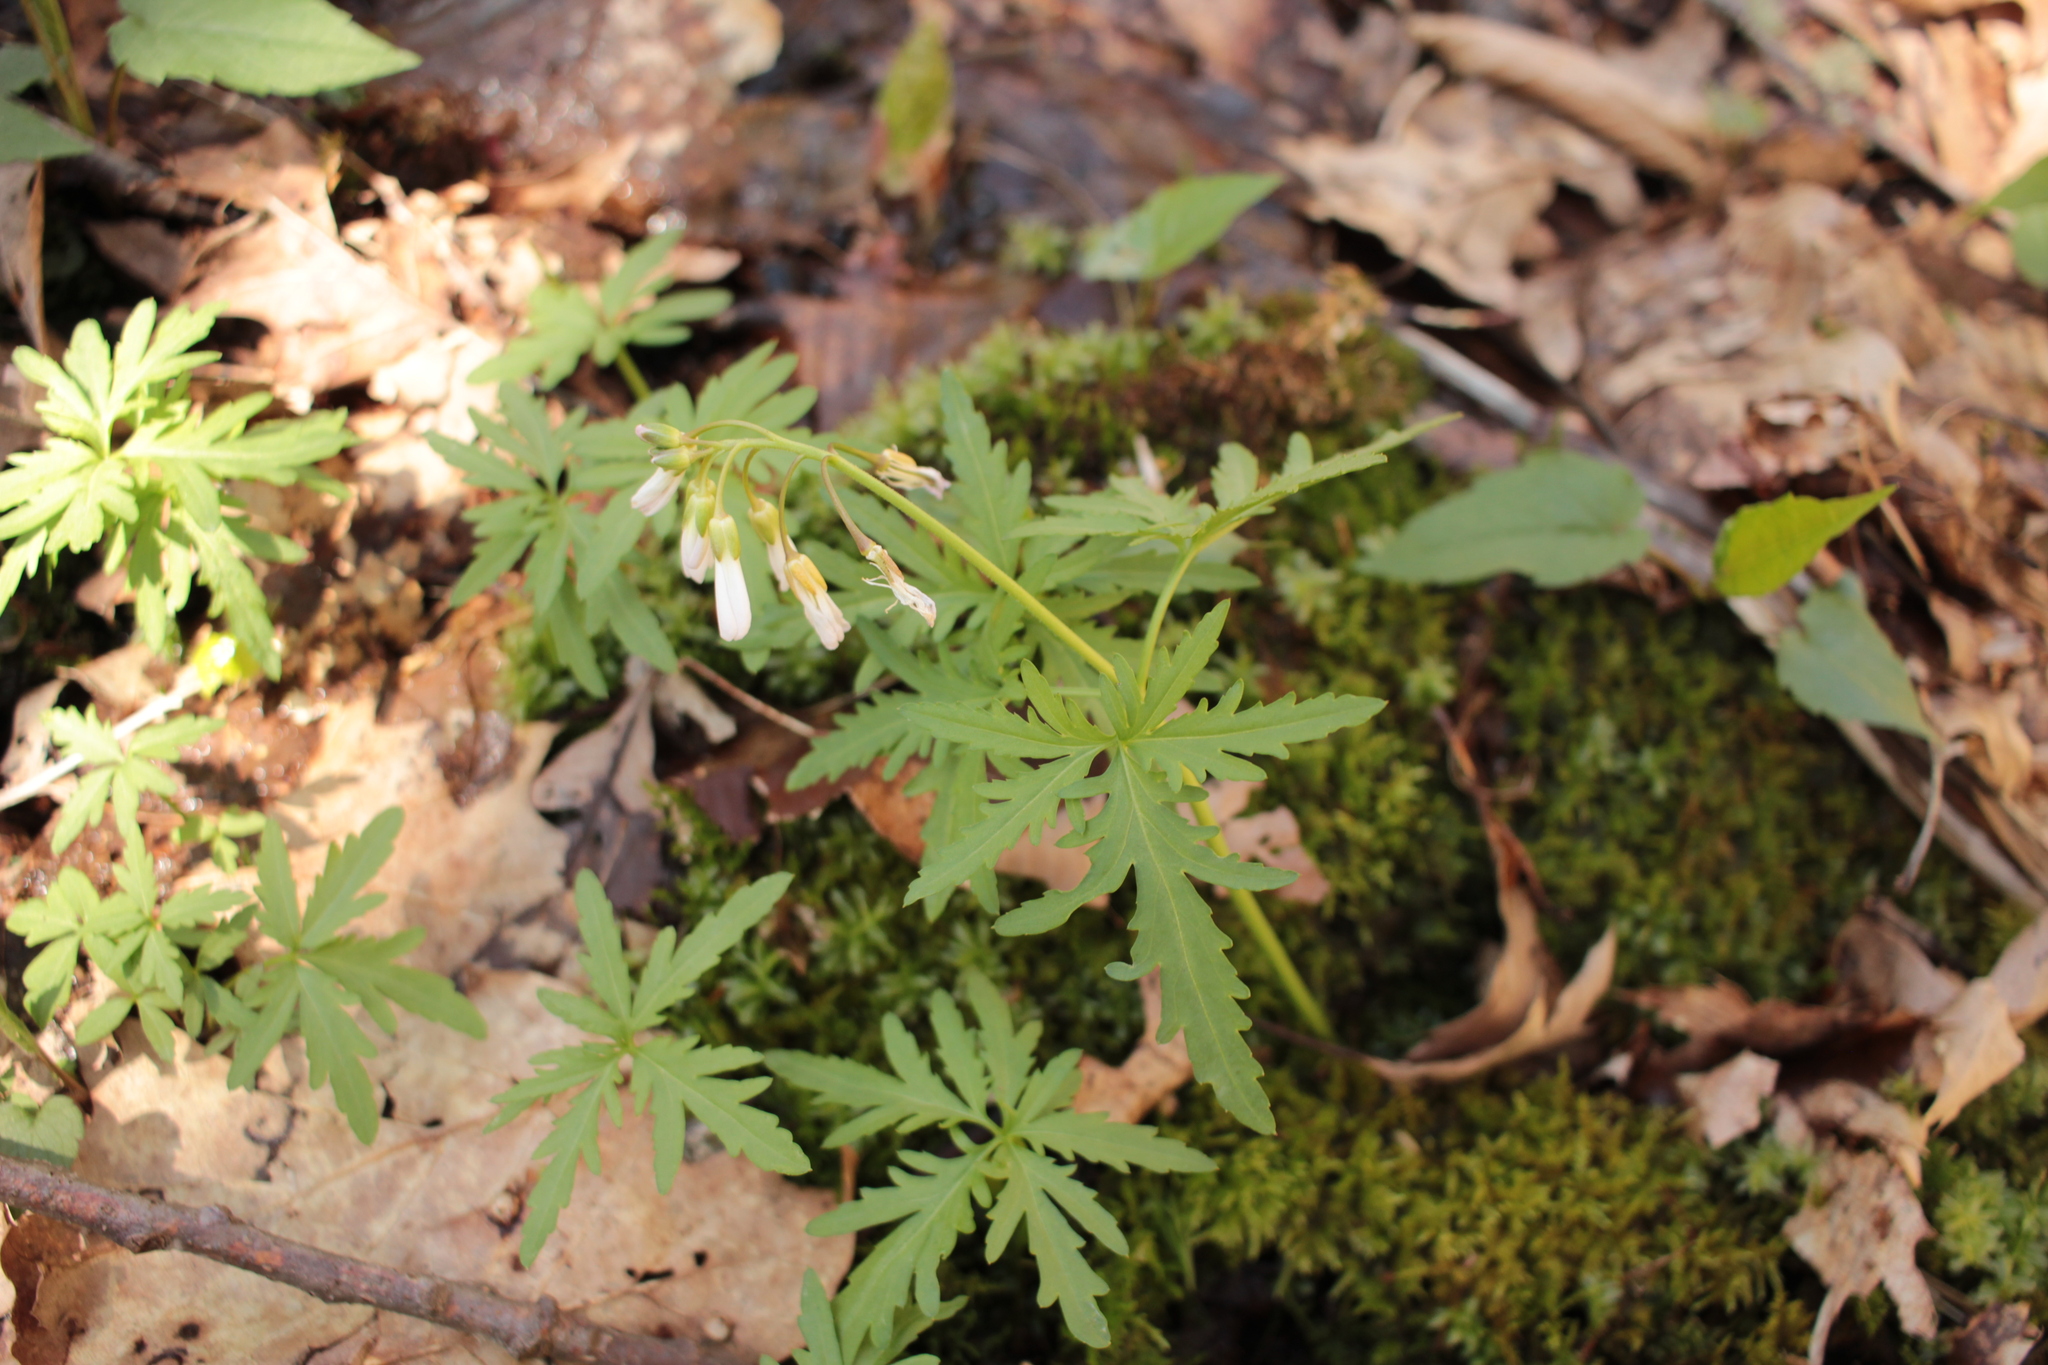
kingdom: Plantae
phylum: Tracheophyta
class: Magnoliopsida
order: Brassicales
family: Brassicaceae
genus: Cardamine
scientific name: Cardamine concatenata
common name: Cut-leaf toothcup
